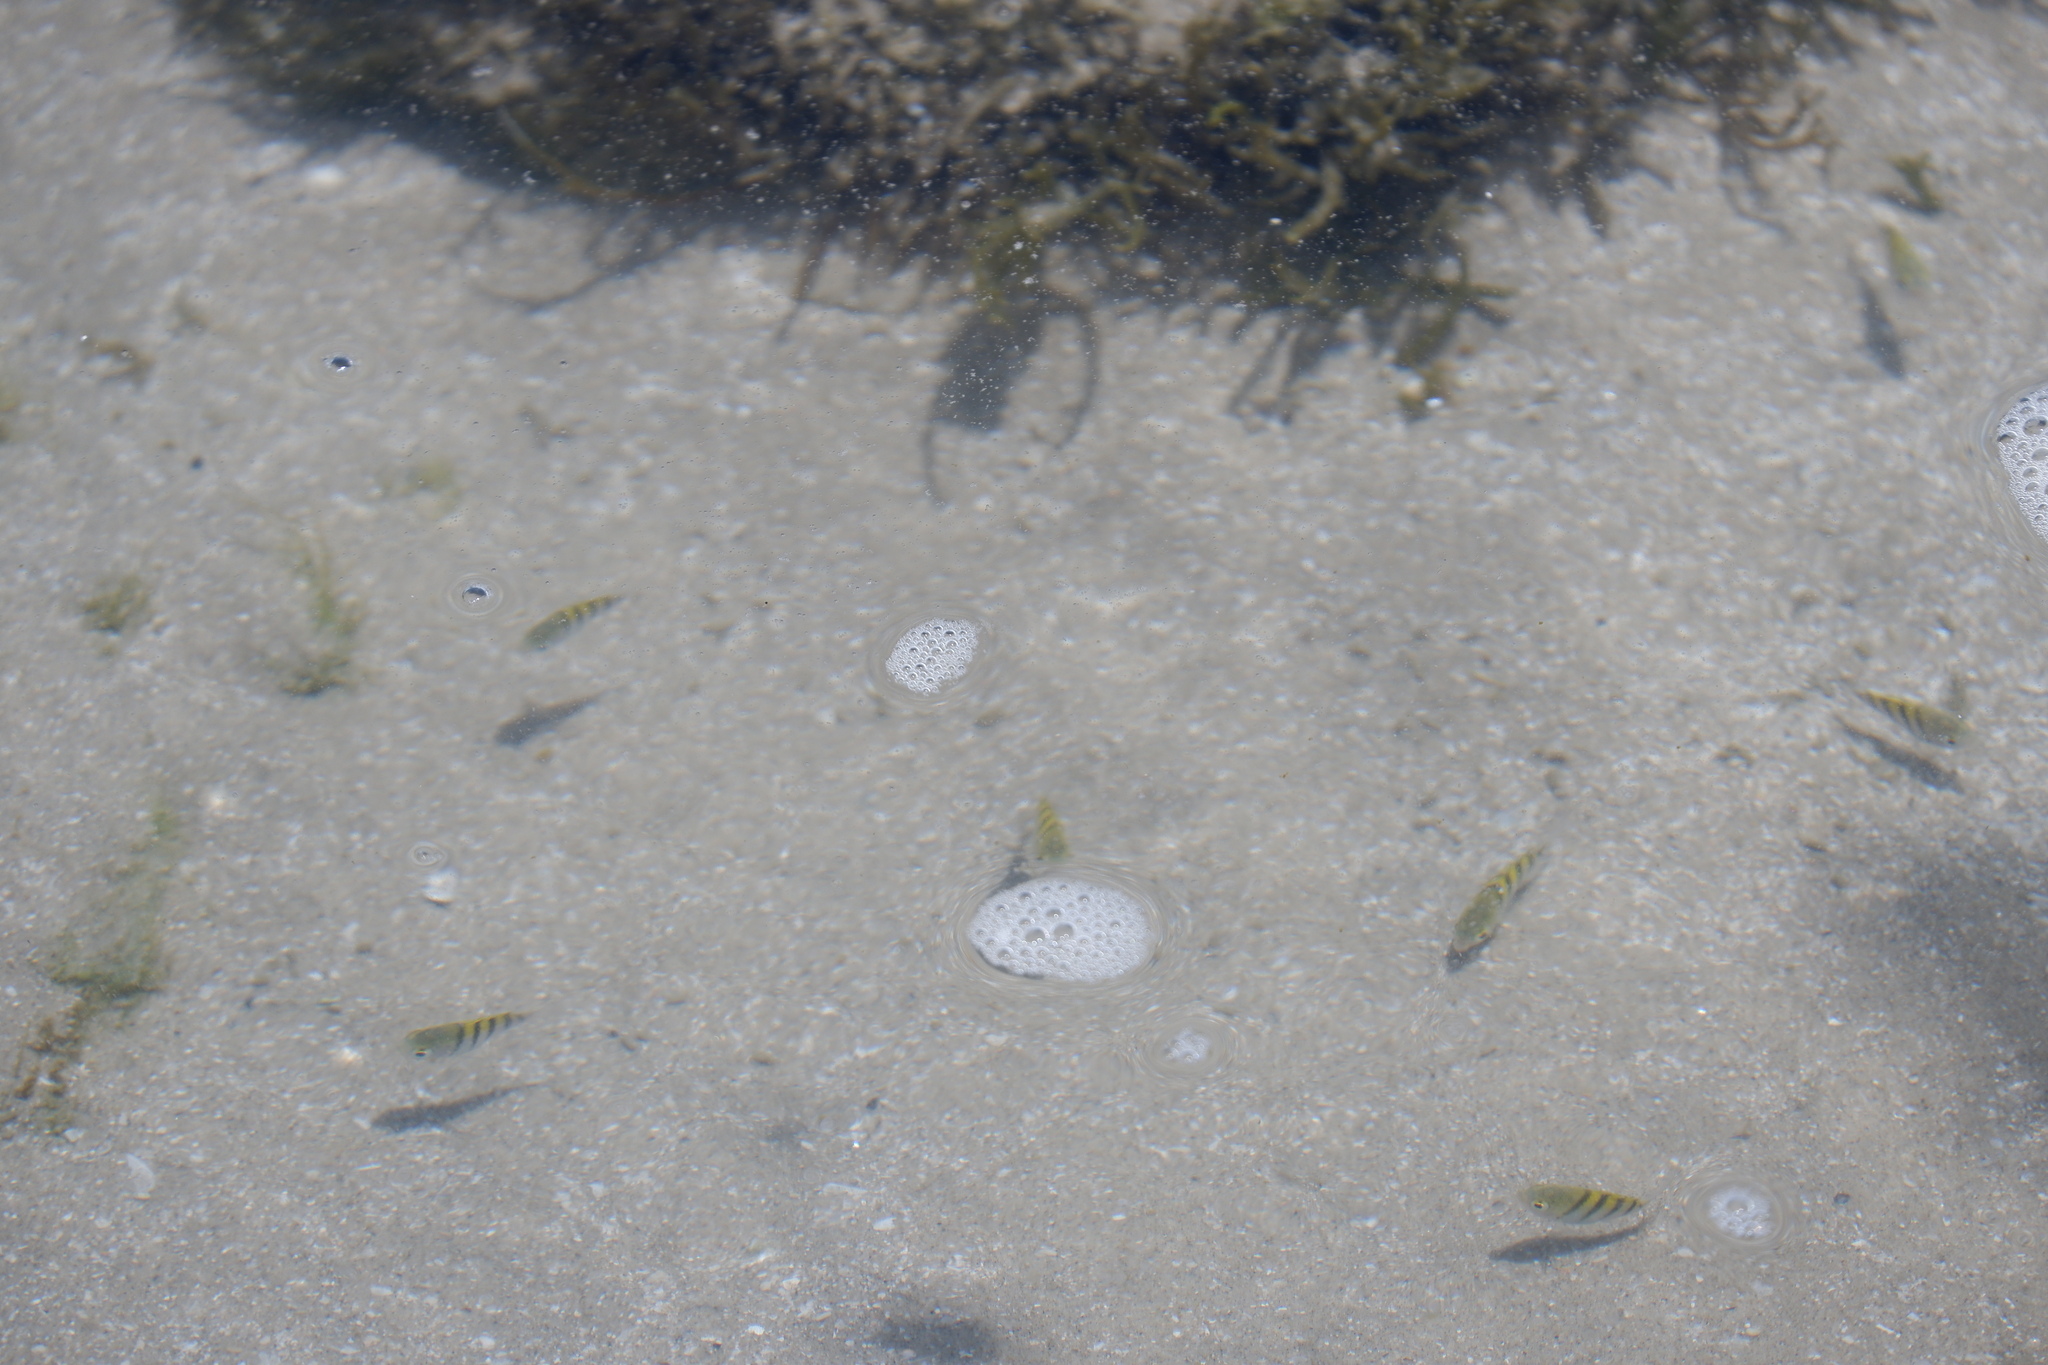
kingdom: Animalia
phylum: Chordata
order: Perciformes
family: Pomacentridae
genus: Abudefduf
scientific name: Abudefduf saxatilis
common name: Sergeant major
